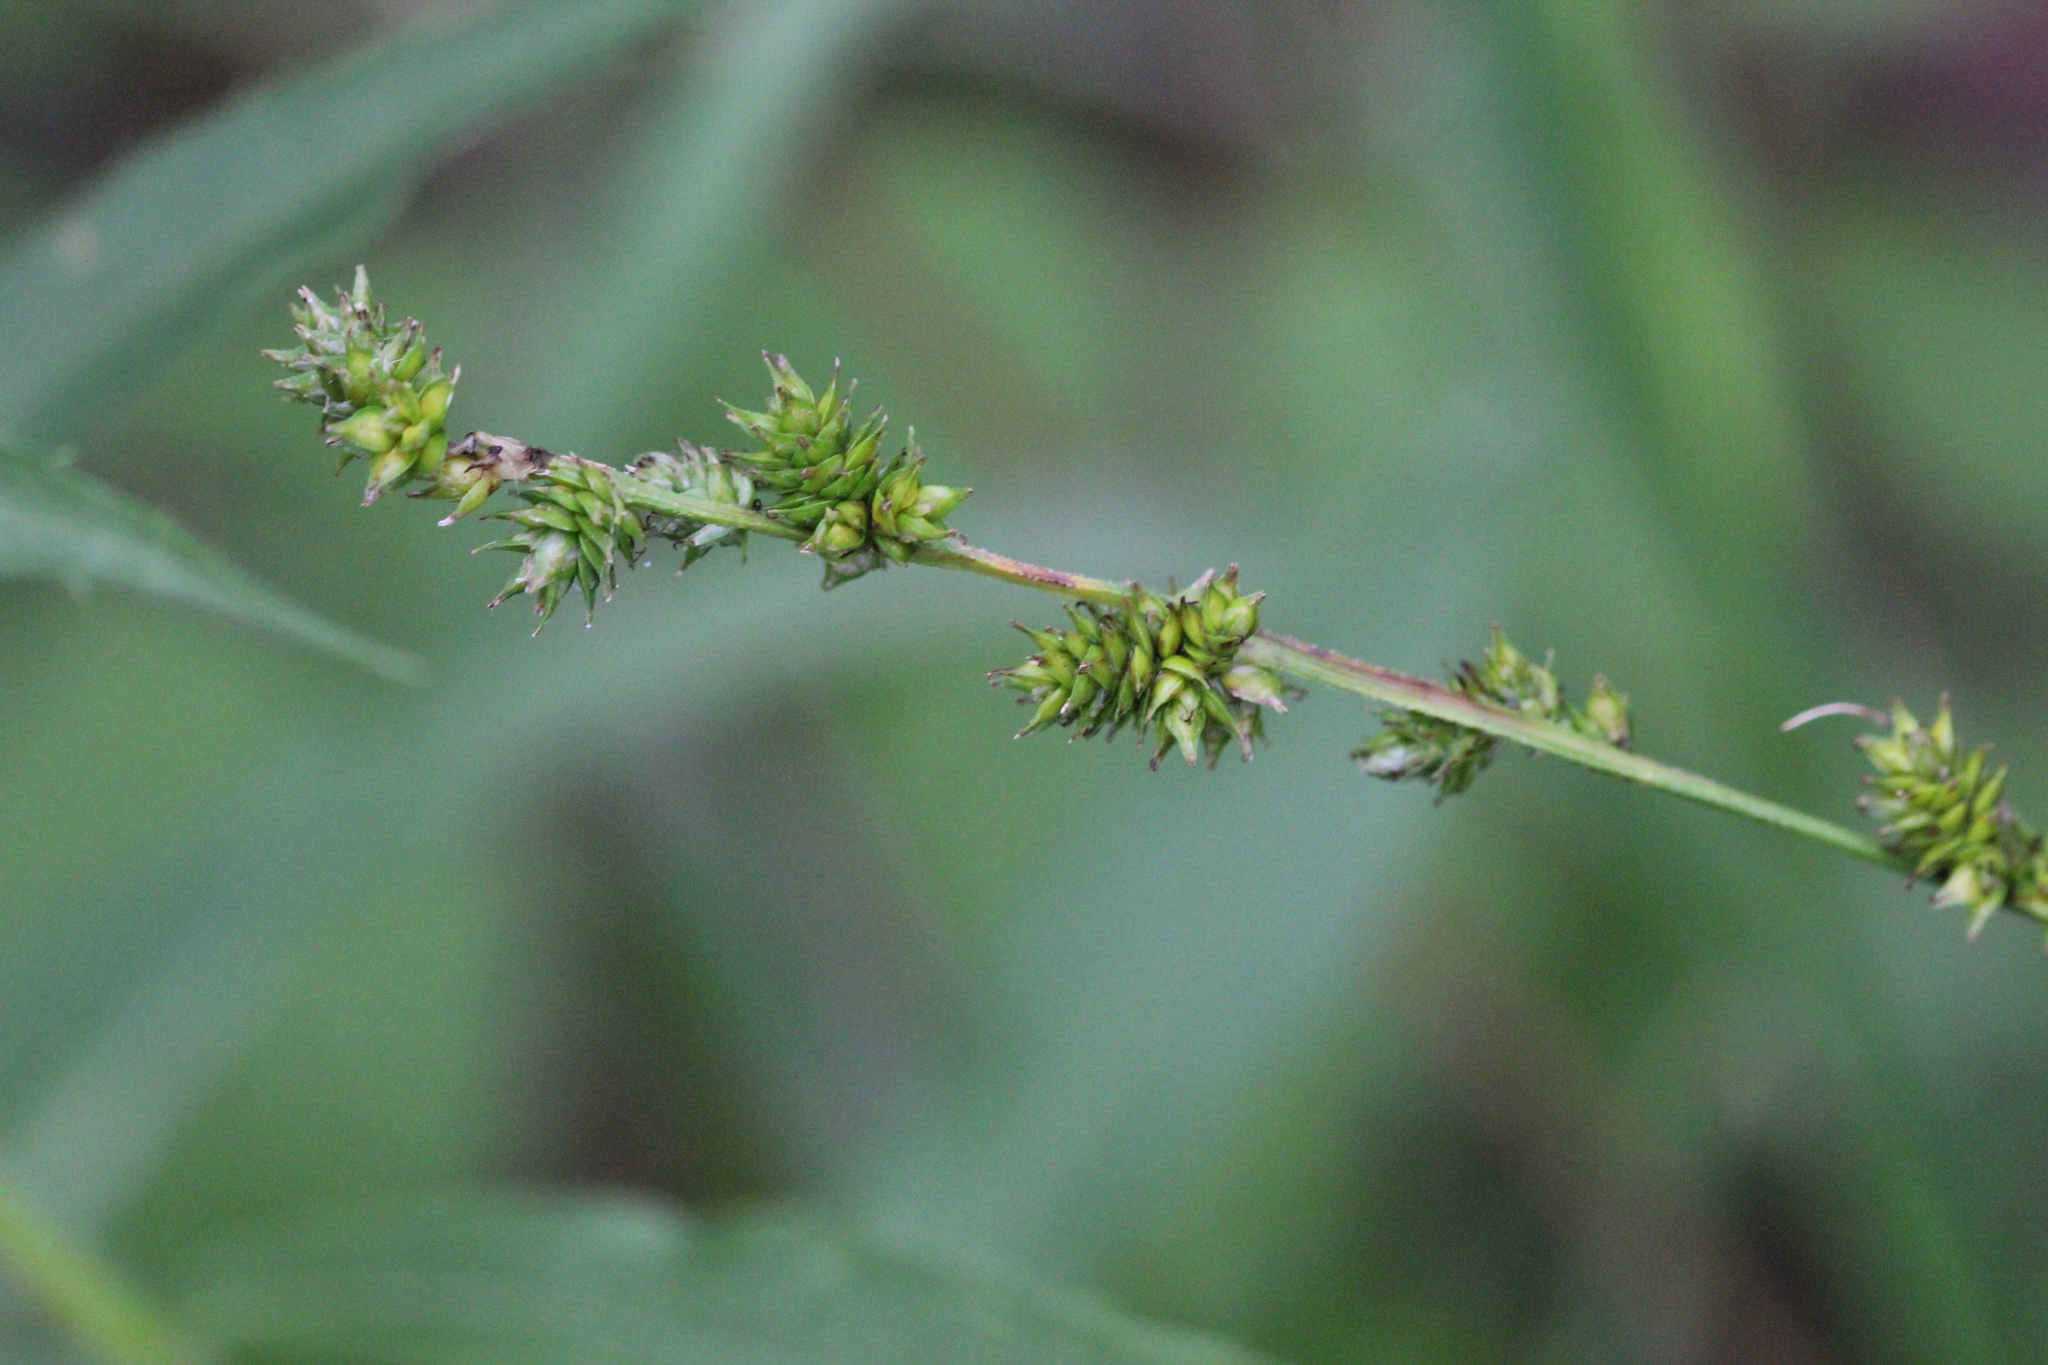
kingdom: Plantae
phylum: Tracheophyta
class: Liliopsida
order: Poales
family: Cyperaceae
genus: Carex
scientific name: Carex sparganioides
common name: Burreed sedge
